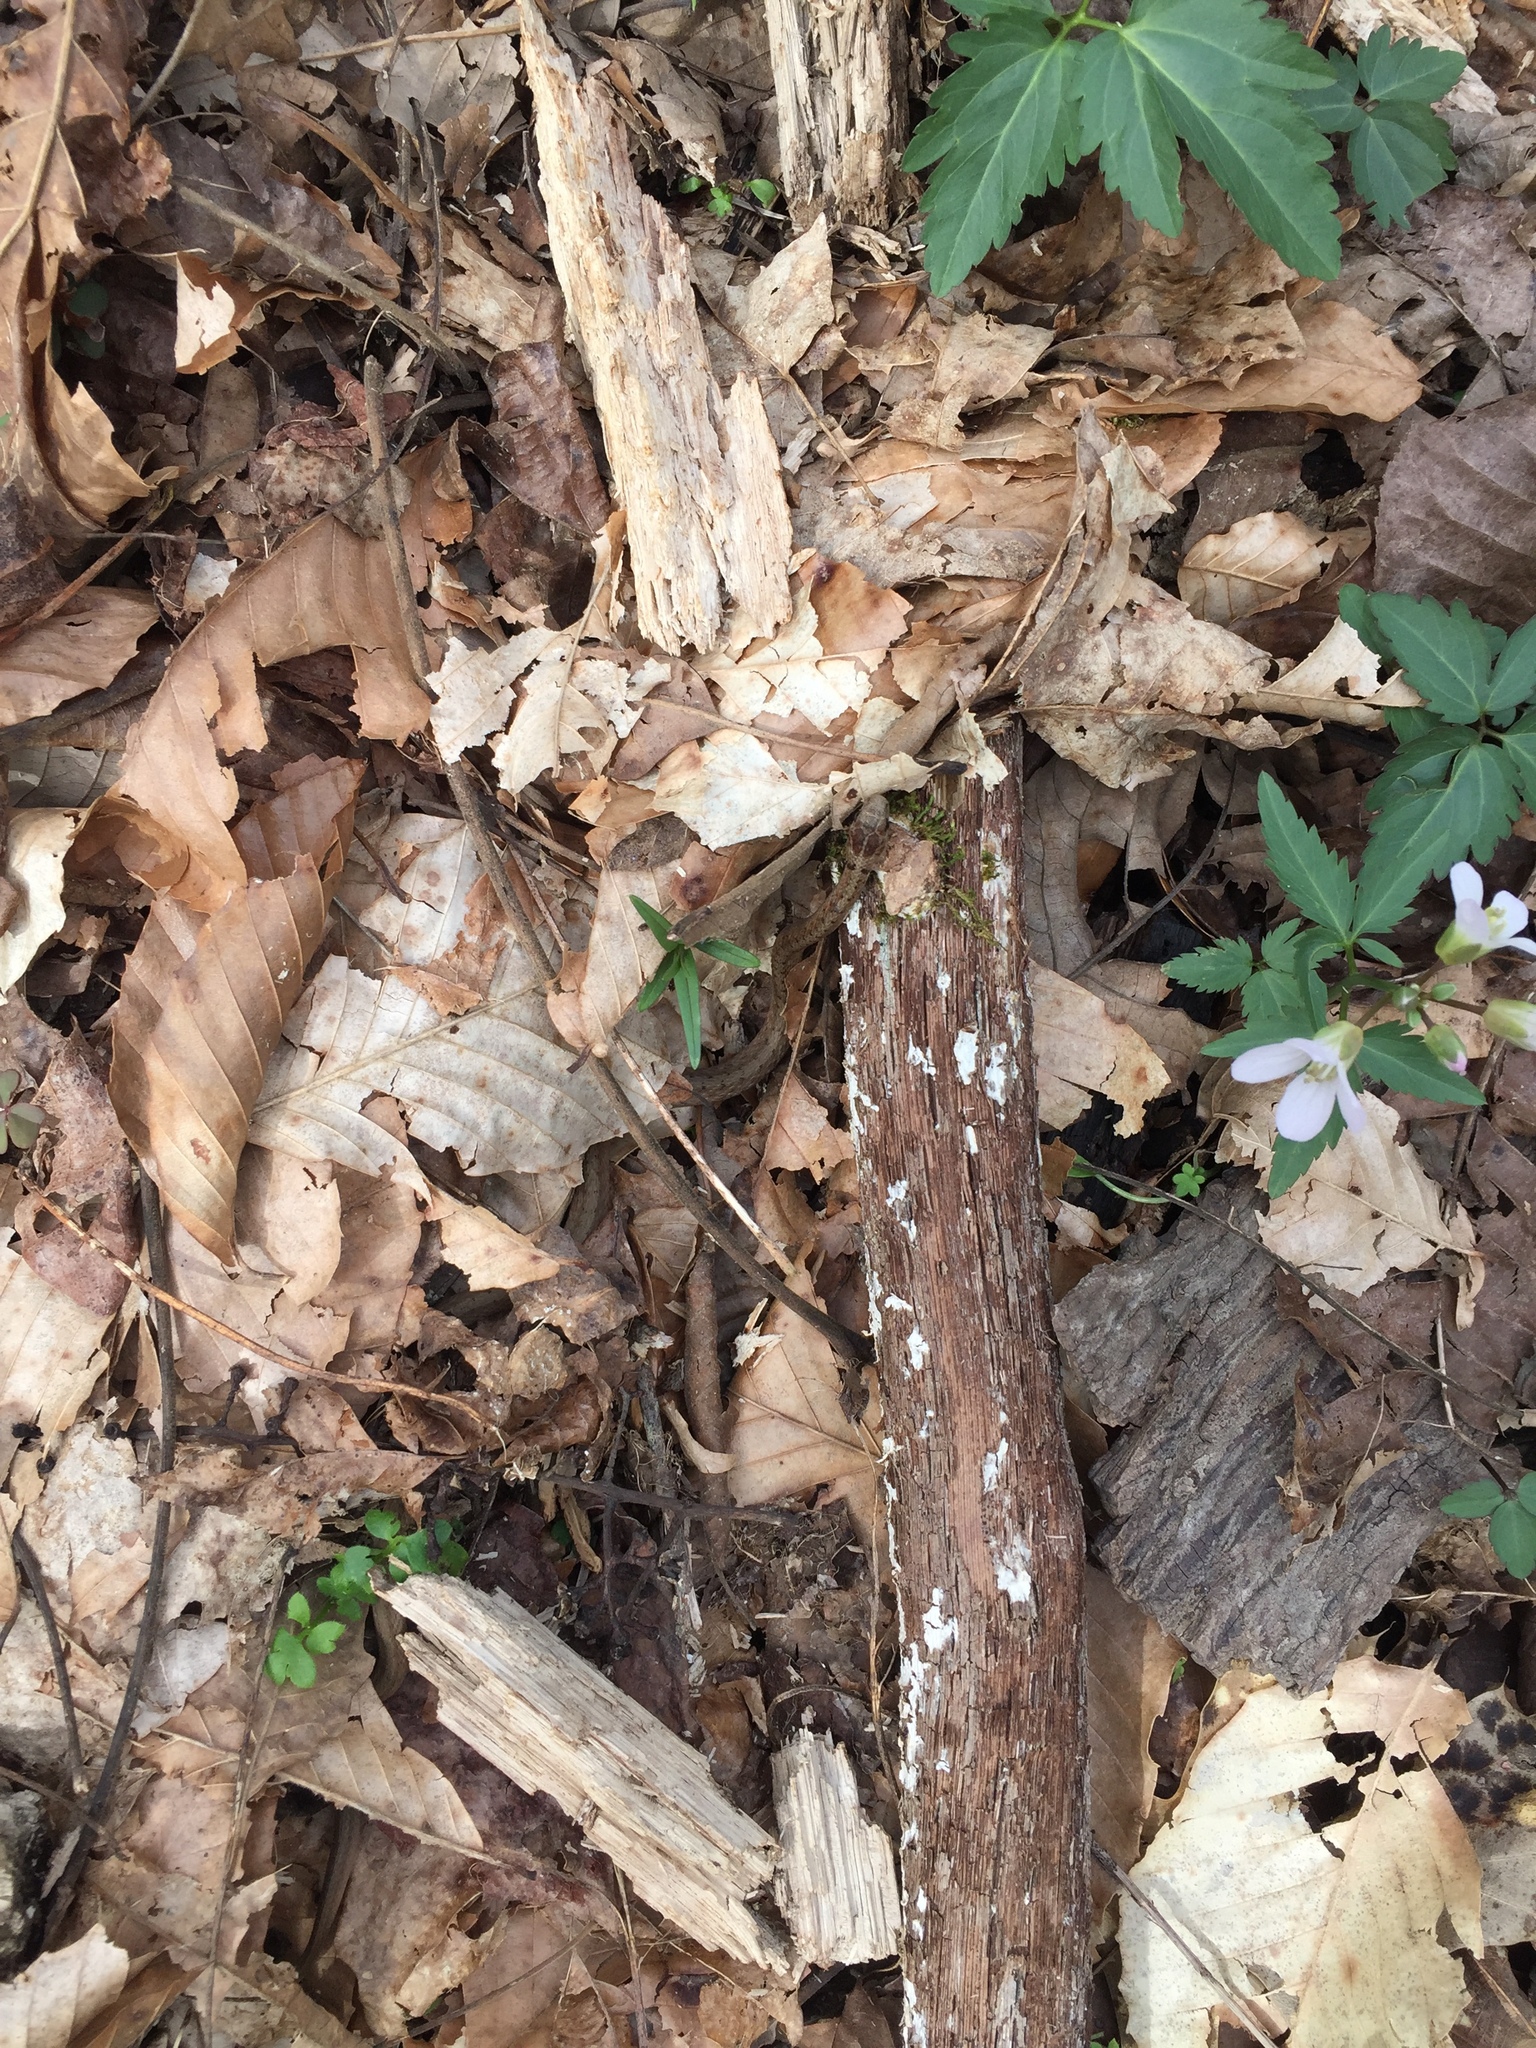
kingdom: Animalia
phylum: Chordata
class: Squamata
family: Colubridae
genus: Storeria
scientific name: Storeria dekayi
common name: (dekay’s) brown snake
